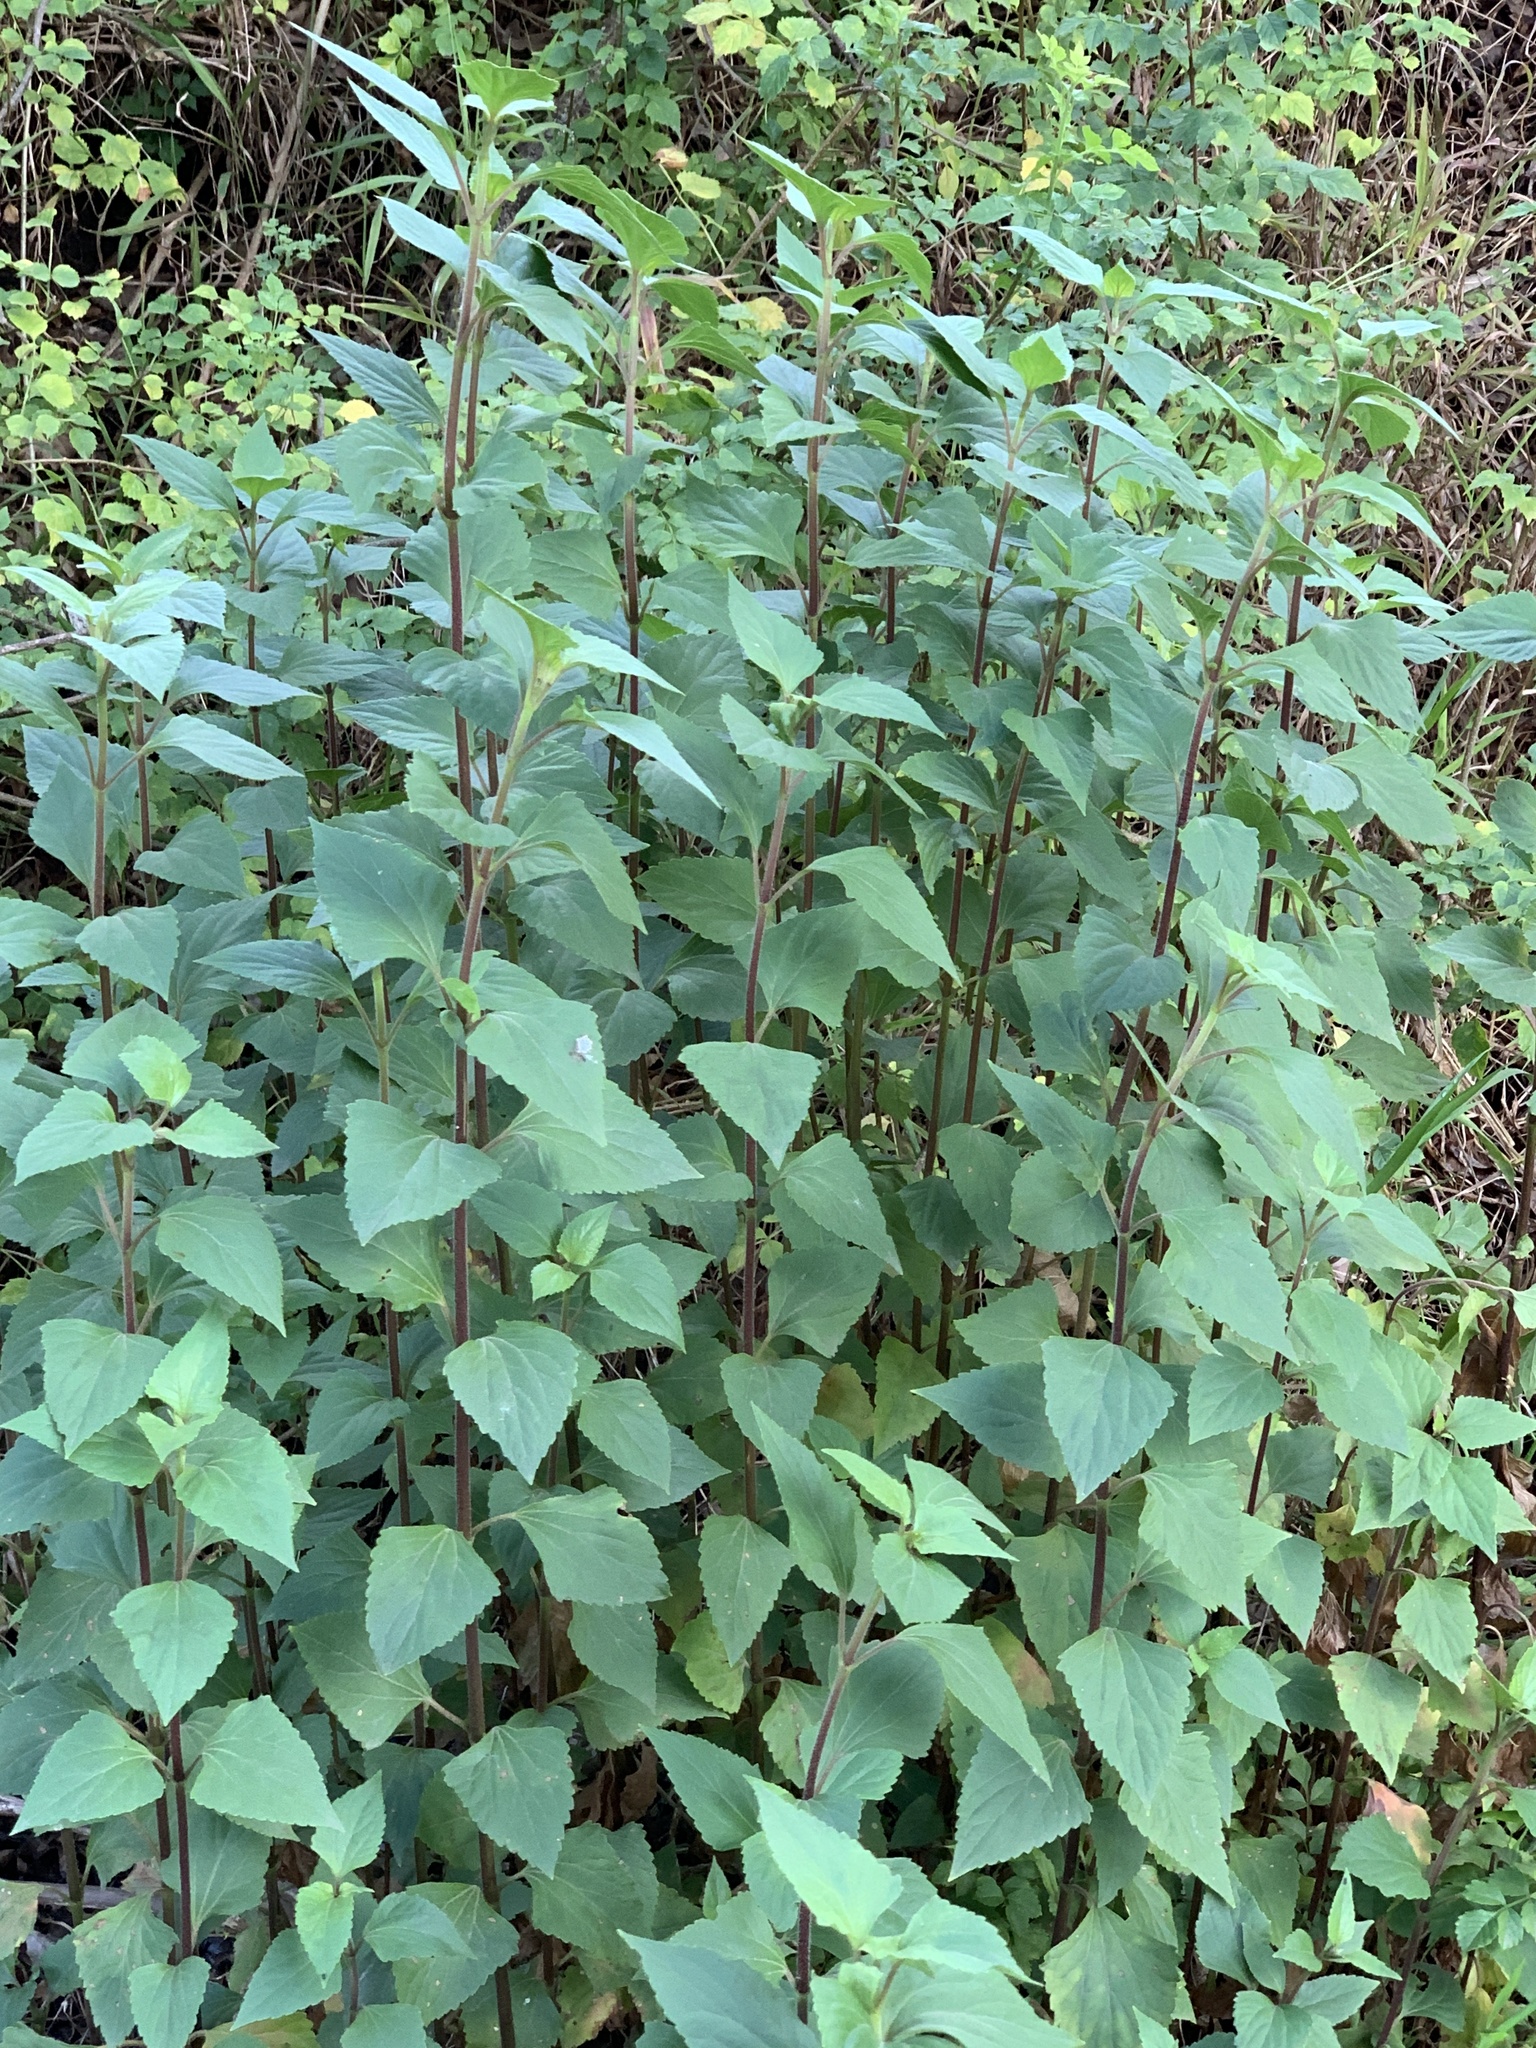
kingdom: Plantae
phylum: Tracheophyta
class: Magnoliopsida
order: Asterales
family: Asteraceae
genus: Ageratina
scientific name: Ageratina adenophora
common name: Sticky snakeroot
